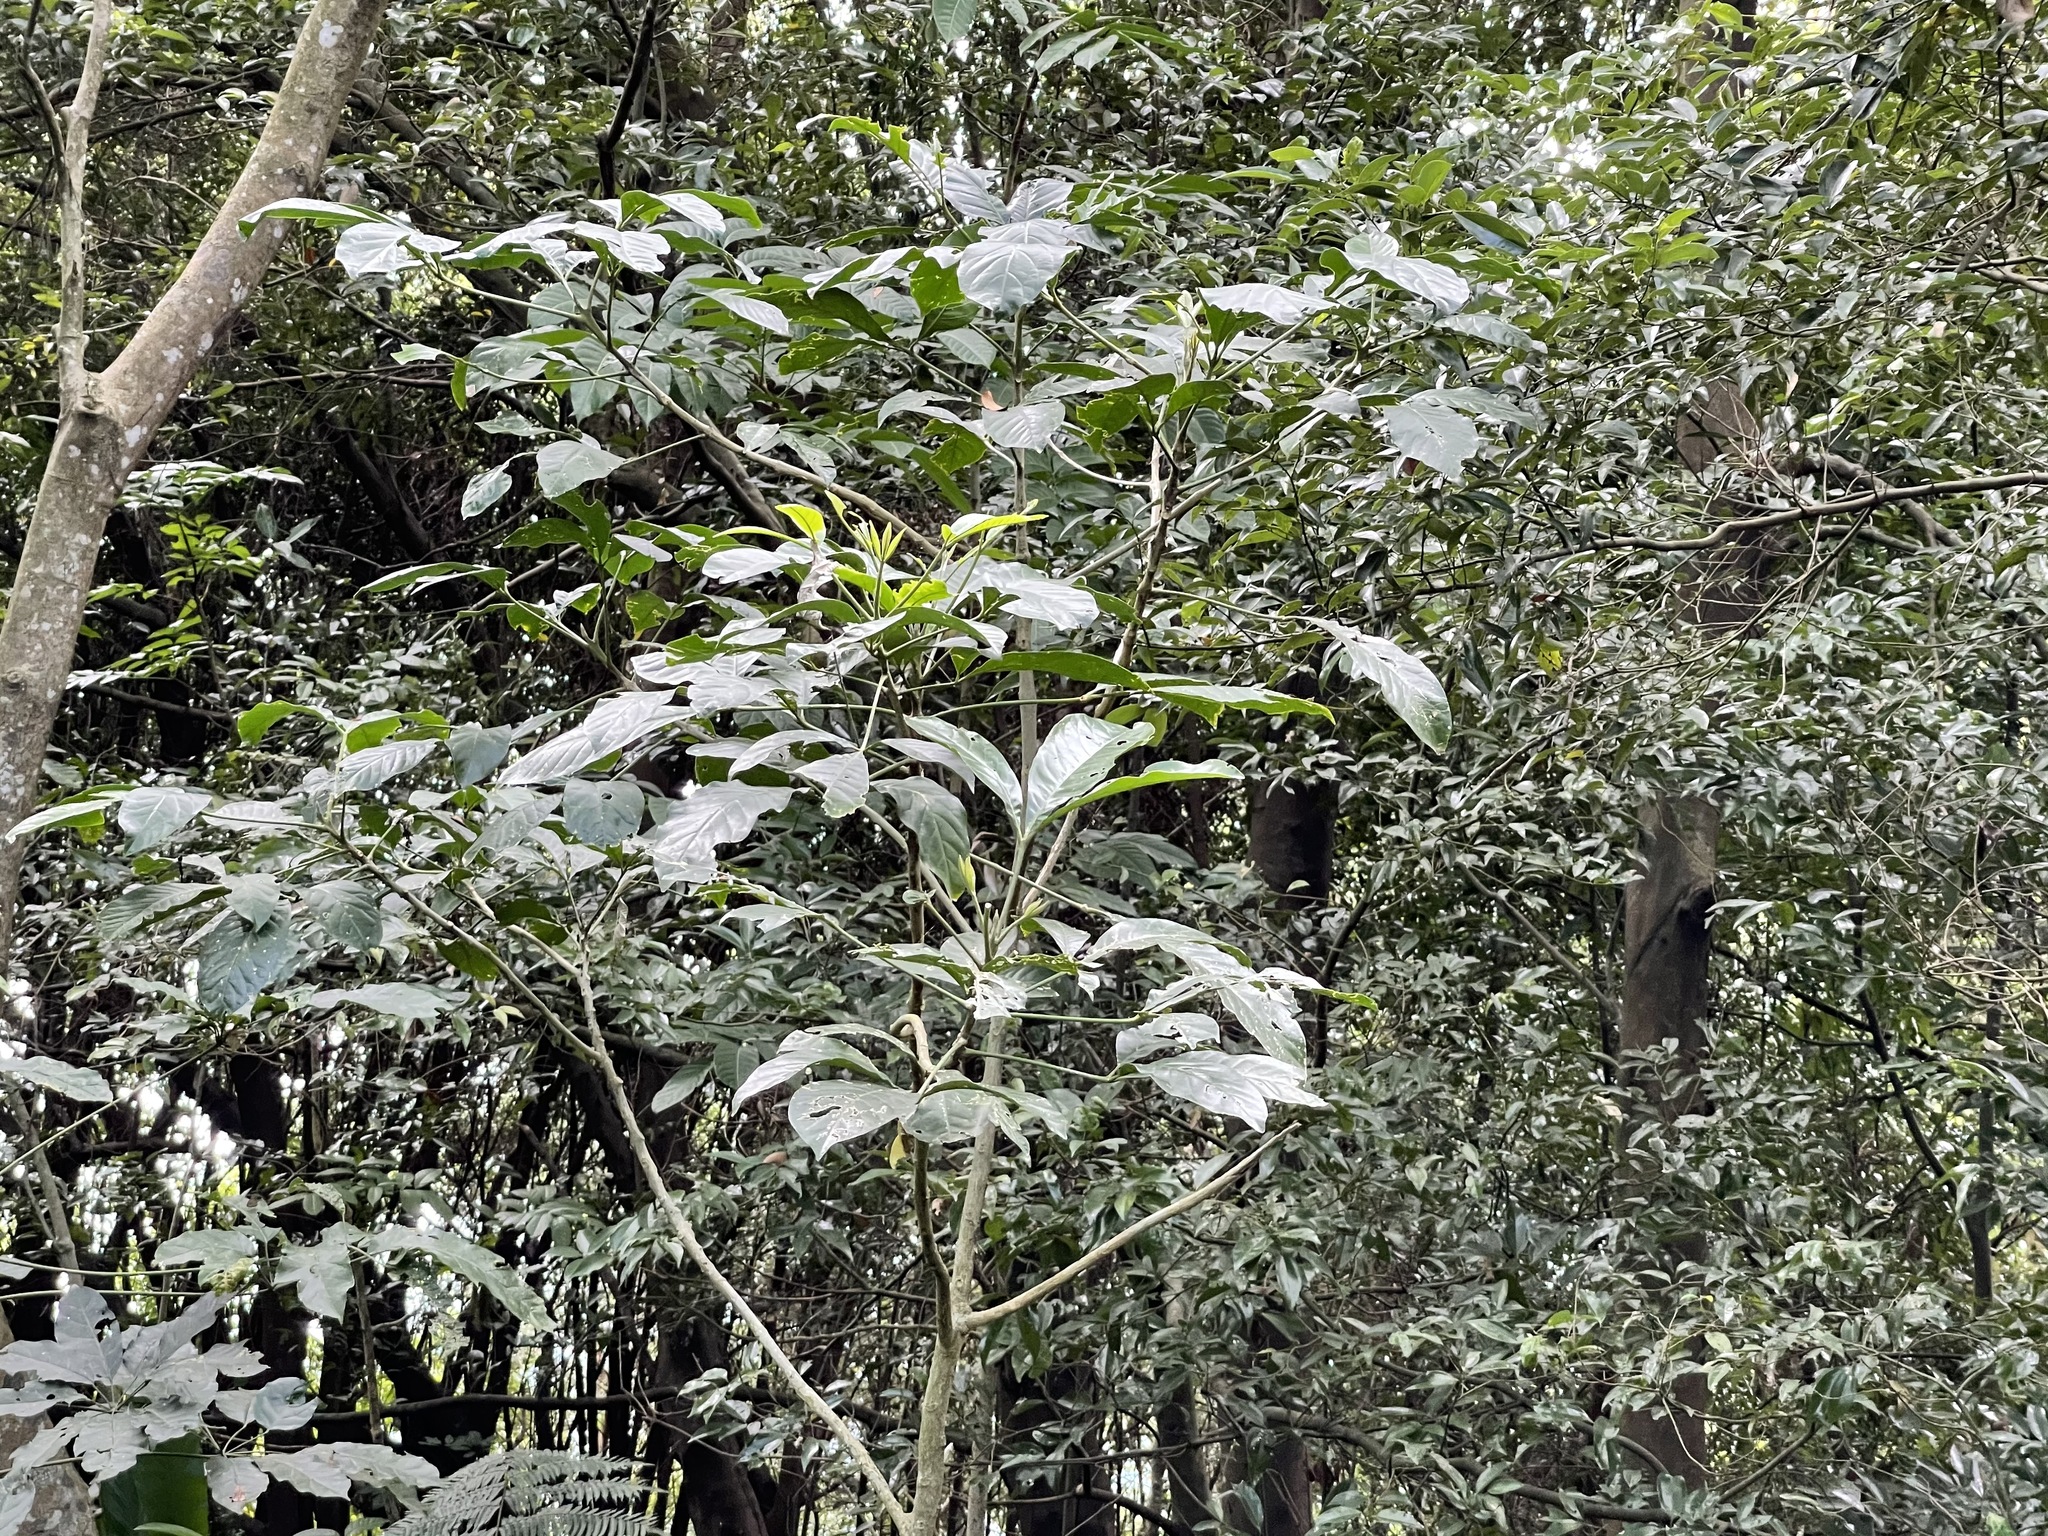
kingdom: Plantae
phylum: Tracheophyta
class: Magnoliopsida
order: Sapindales
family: Rutaceae
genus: Melicope
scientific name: Melicope semecarpifolia
